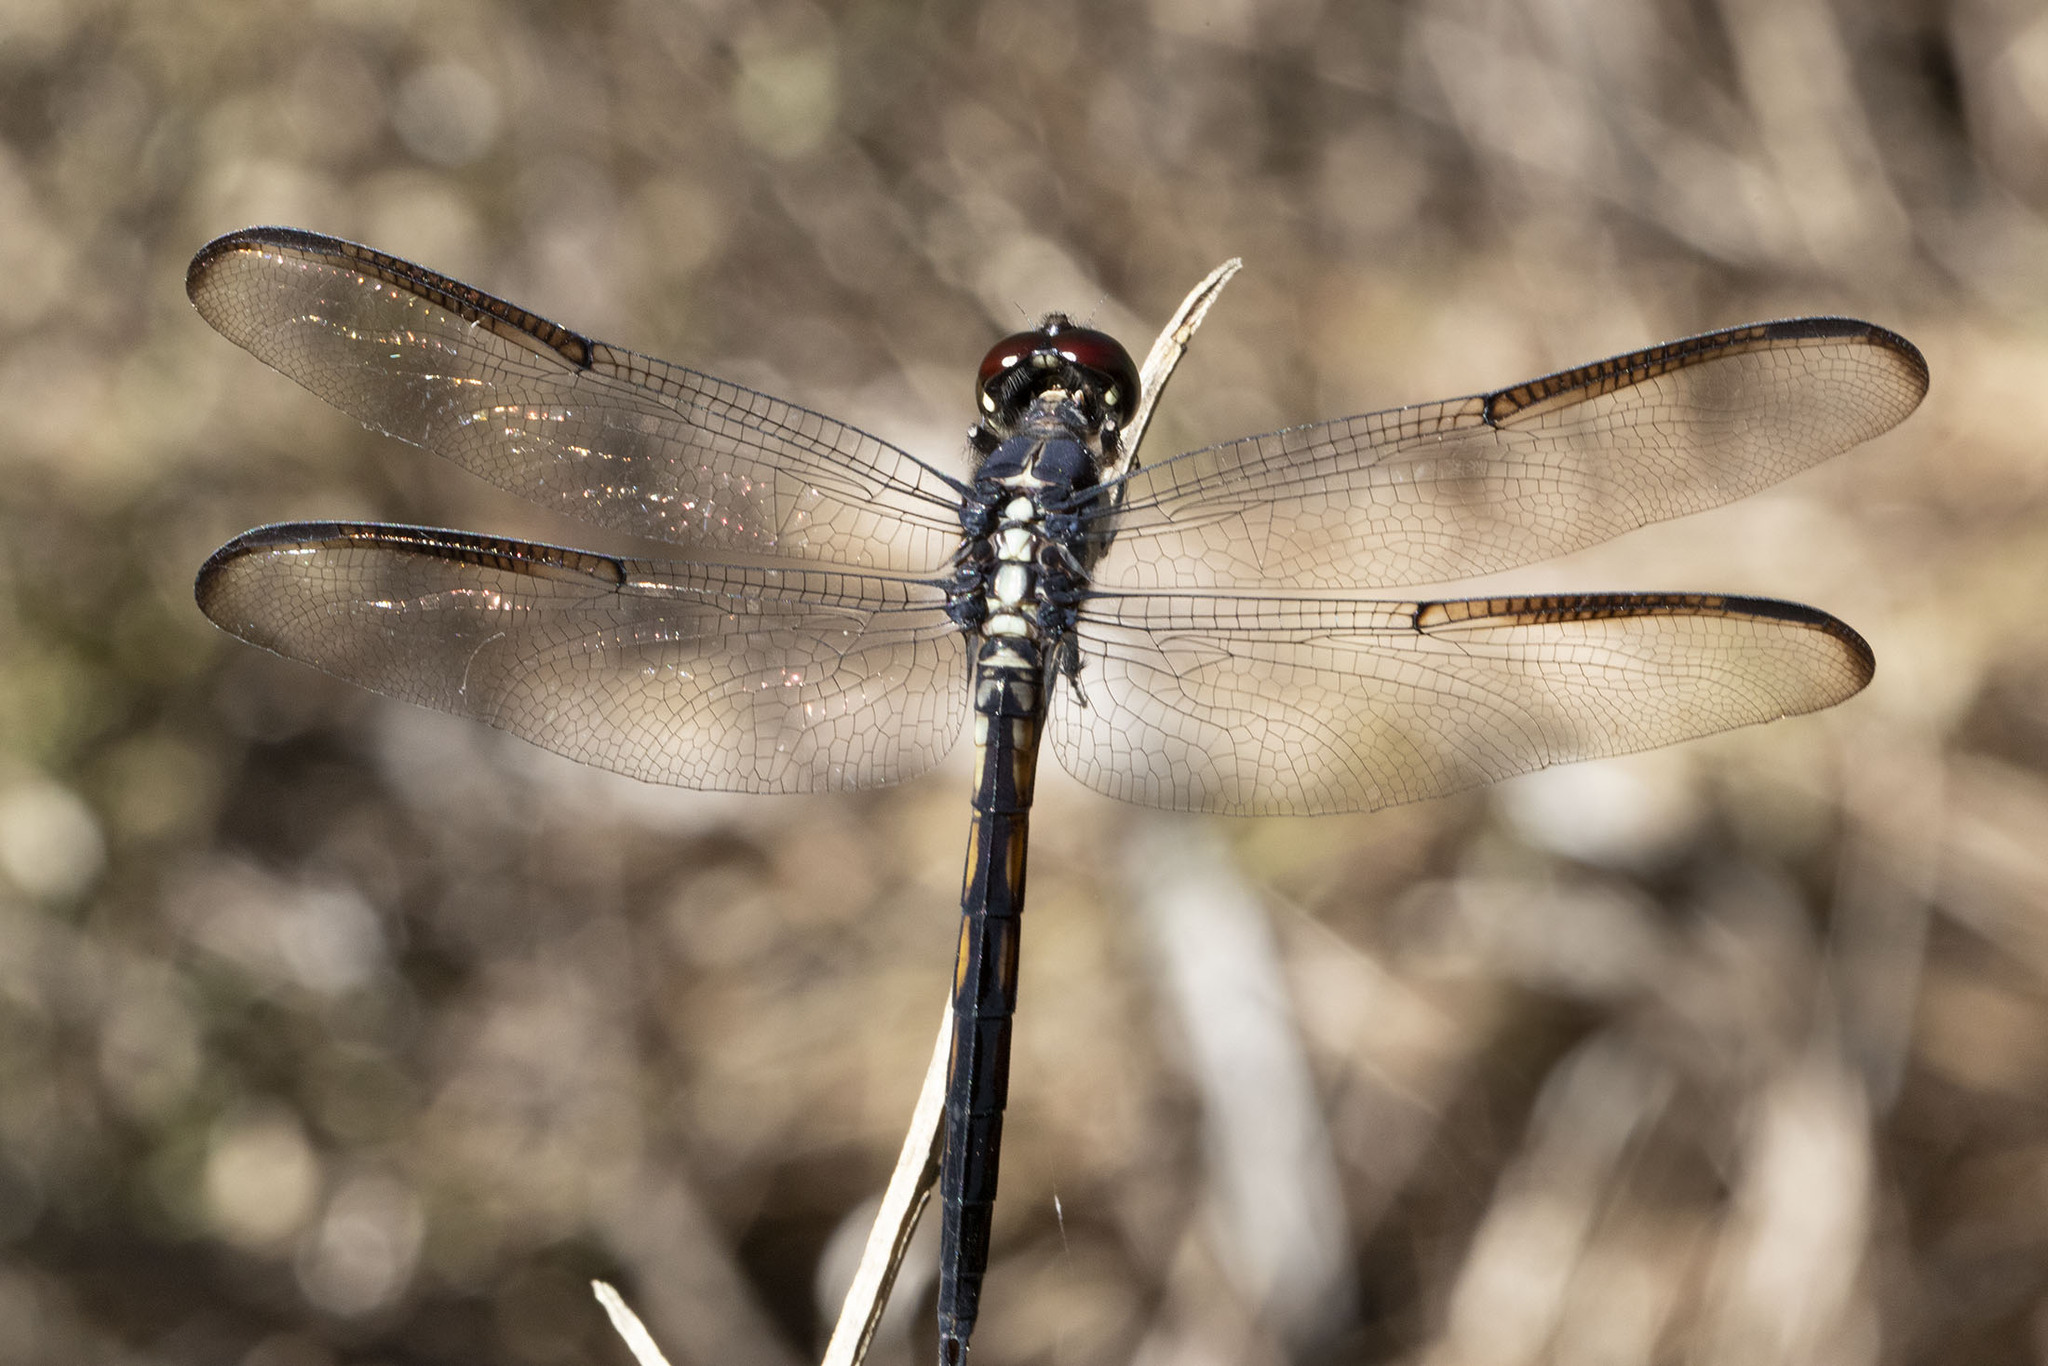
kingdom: Animalia
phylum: Arthropoda
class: Insecta
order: Odonata
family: Libellulidae
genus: Libellula
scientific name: Libellula incesta
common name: Slaty skimmer
